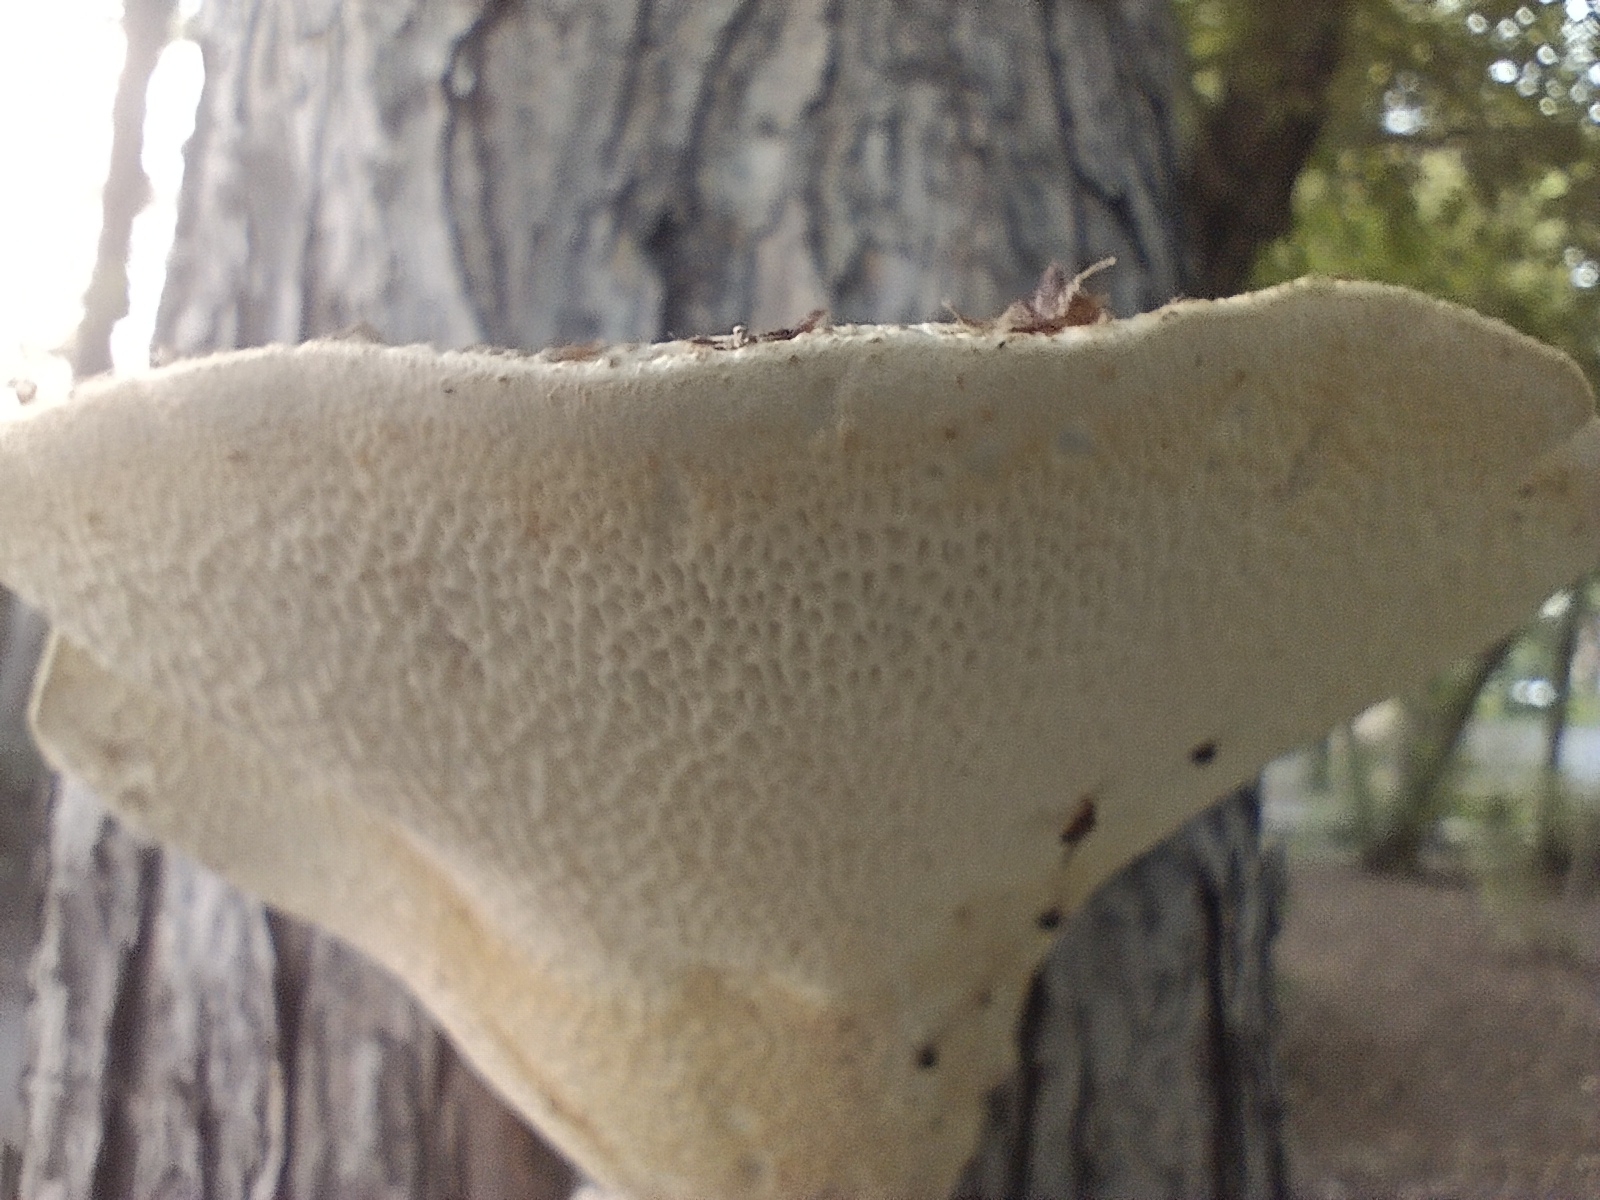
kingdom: Fungi
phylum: Basidiomycota
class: Agaricomycetes
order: Polyporales
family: Polyporaceae
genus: Cerioporus
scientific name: Cerioporus squamosus
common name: Dryad's saddle
